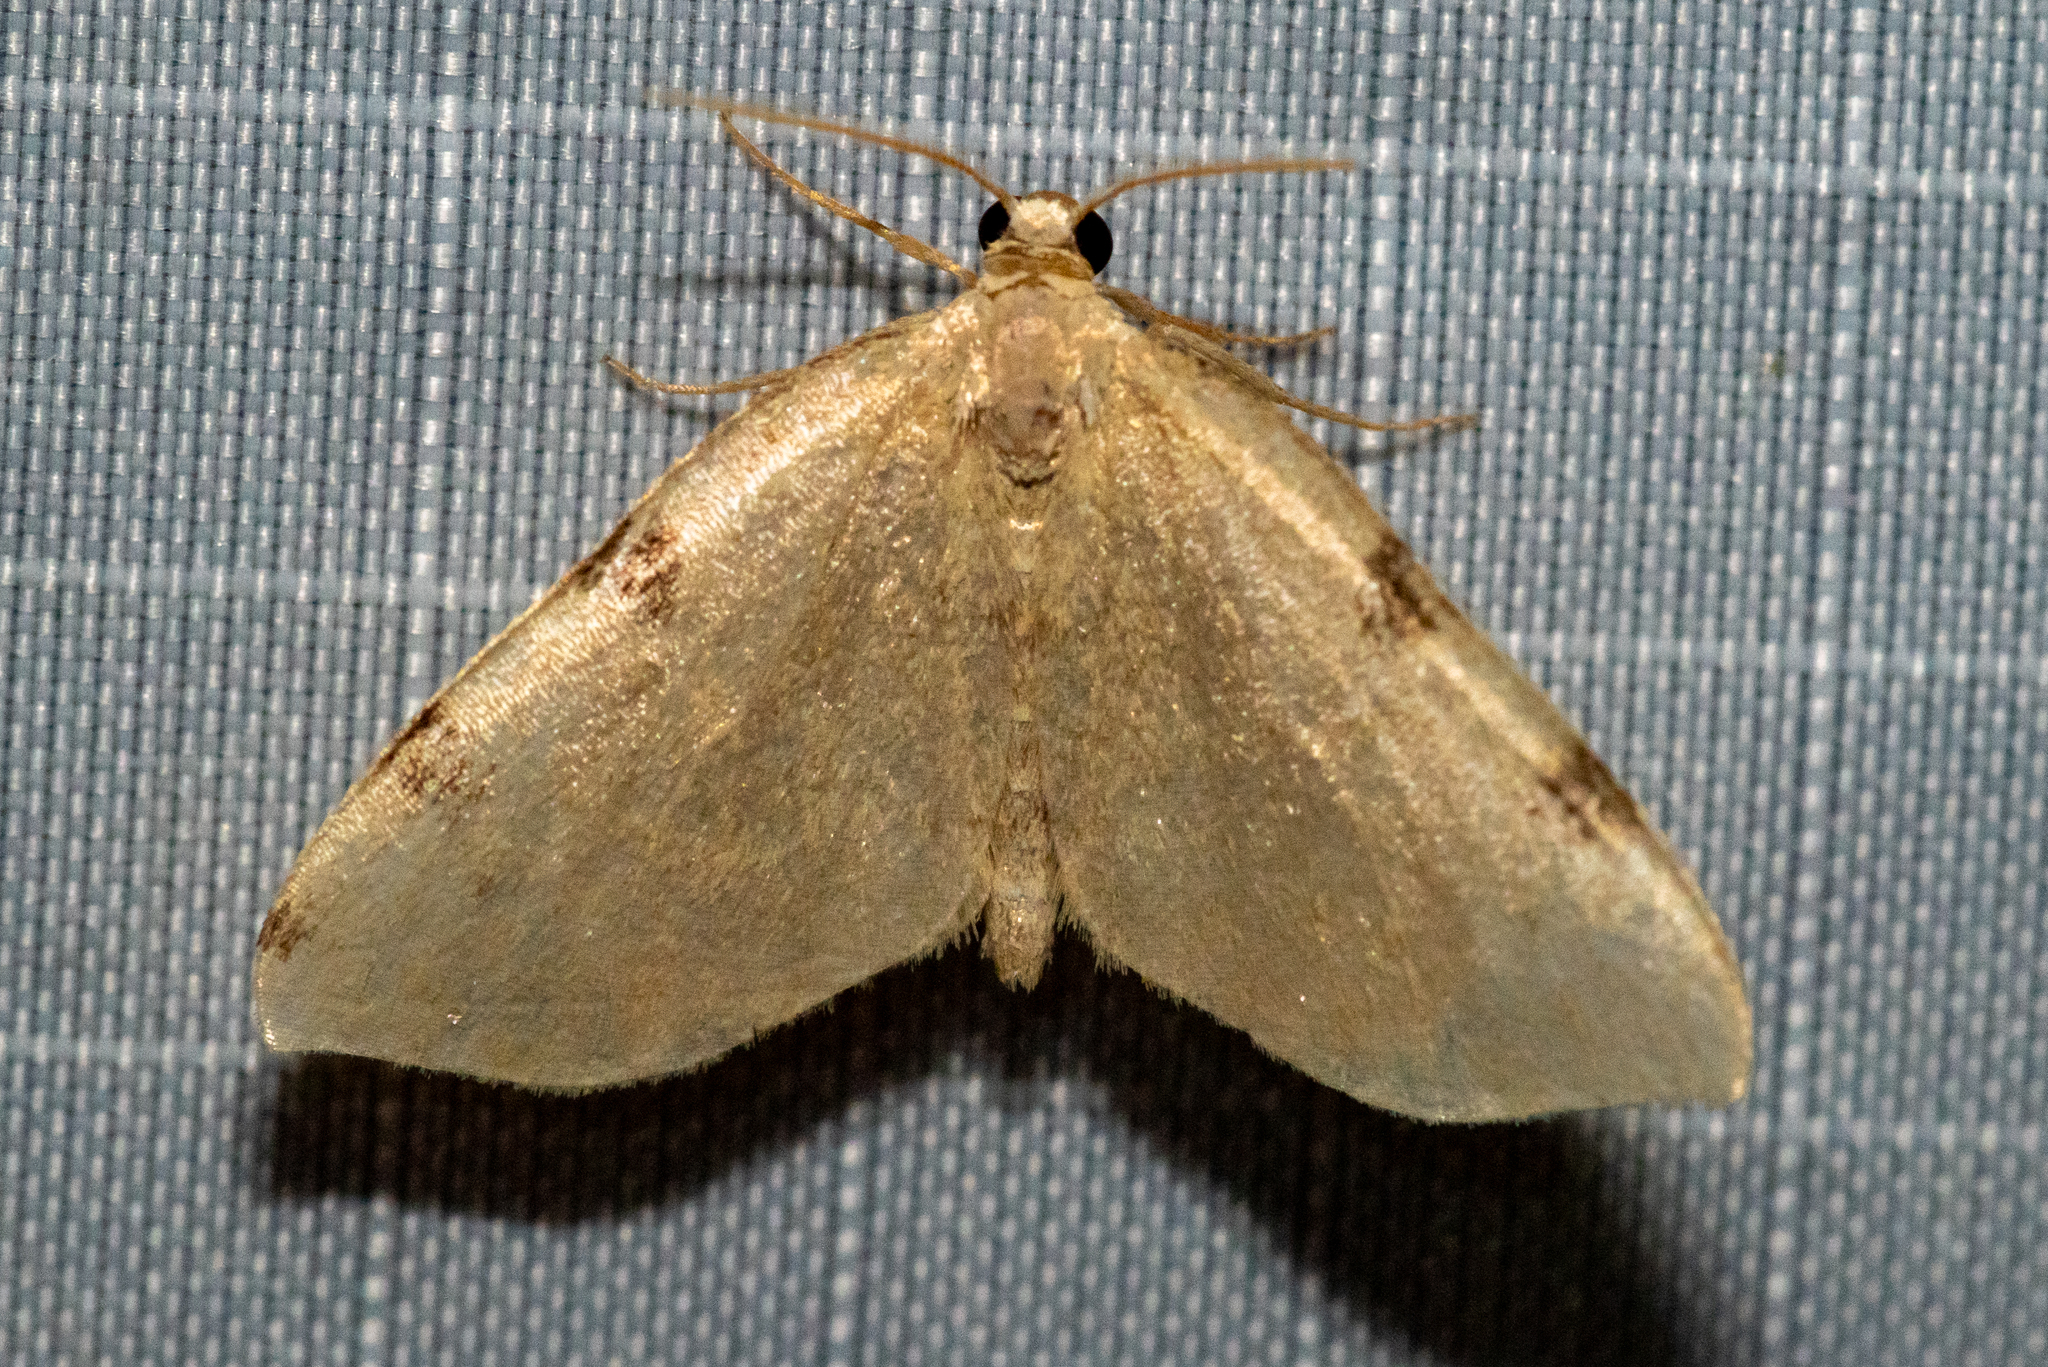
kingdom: Animalia
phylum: Arthropoda
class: Insecta
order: Lepidoptera
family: Geometridae
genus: Heterophleps
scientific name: Heterophleps triguttaria
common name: Three-spotted fillip
